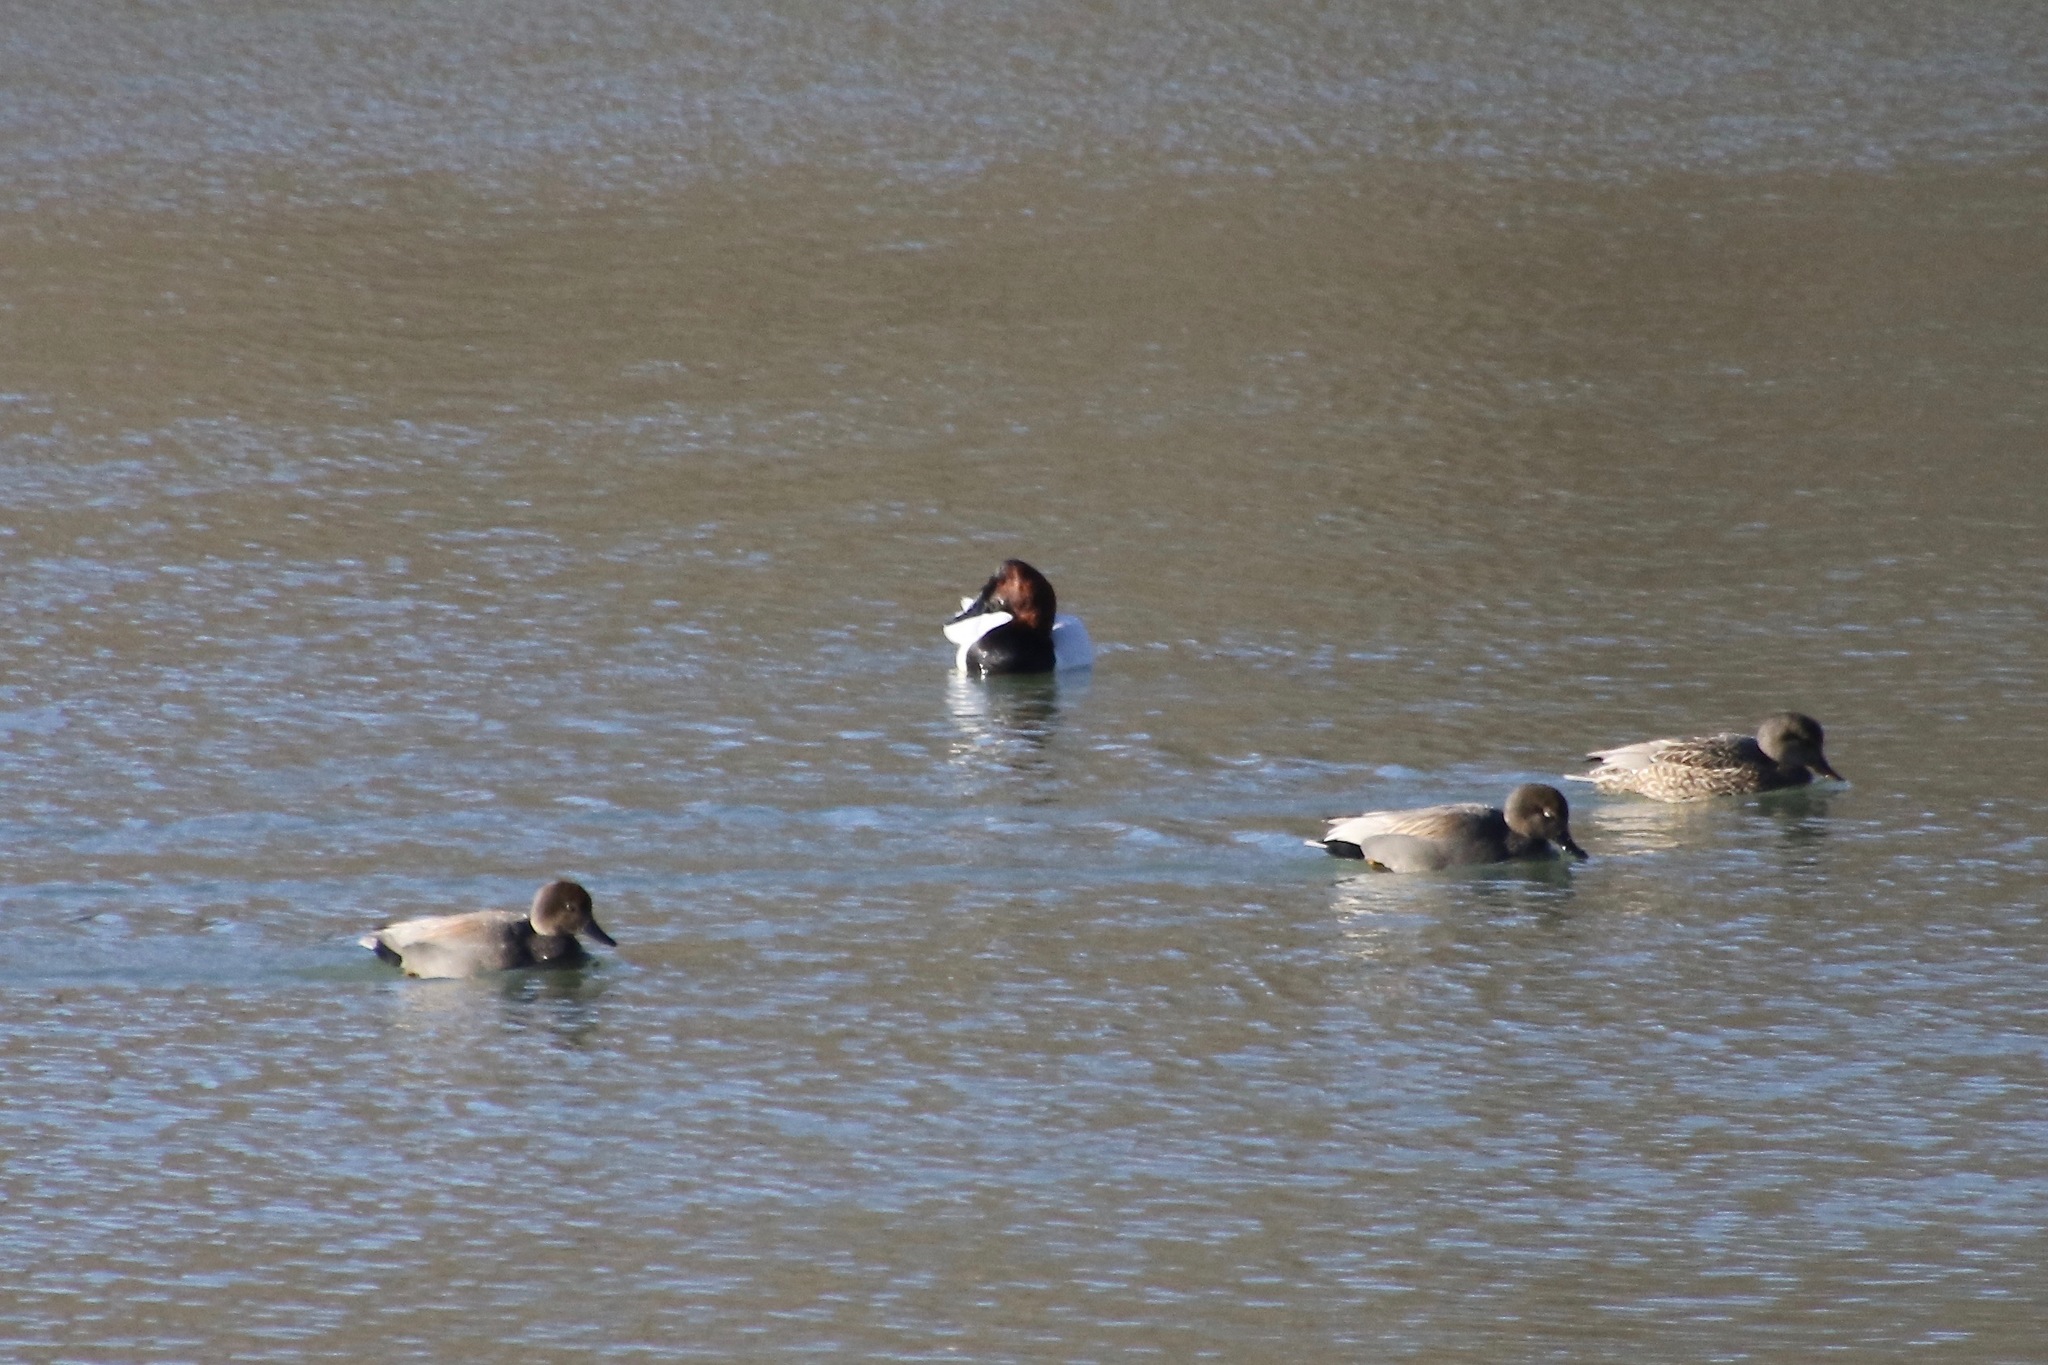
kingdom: Animalia
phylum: Chordata
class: Aves
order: Anseriformes
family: Anatidae
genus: Aythya
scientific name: Aythya valisineria
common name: Canvasback
